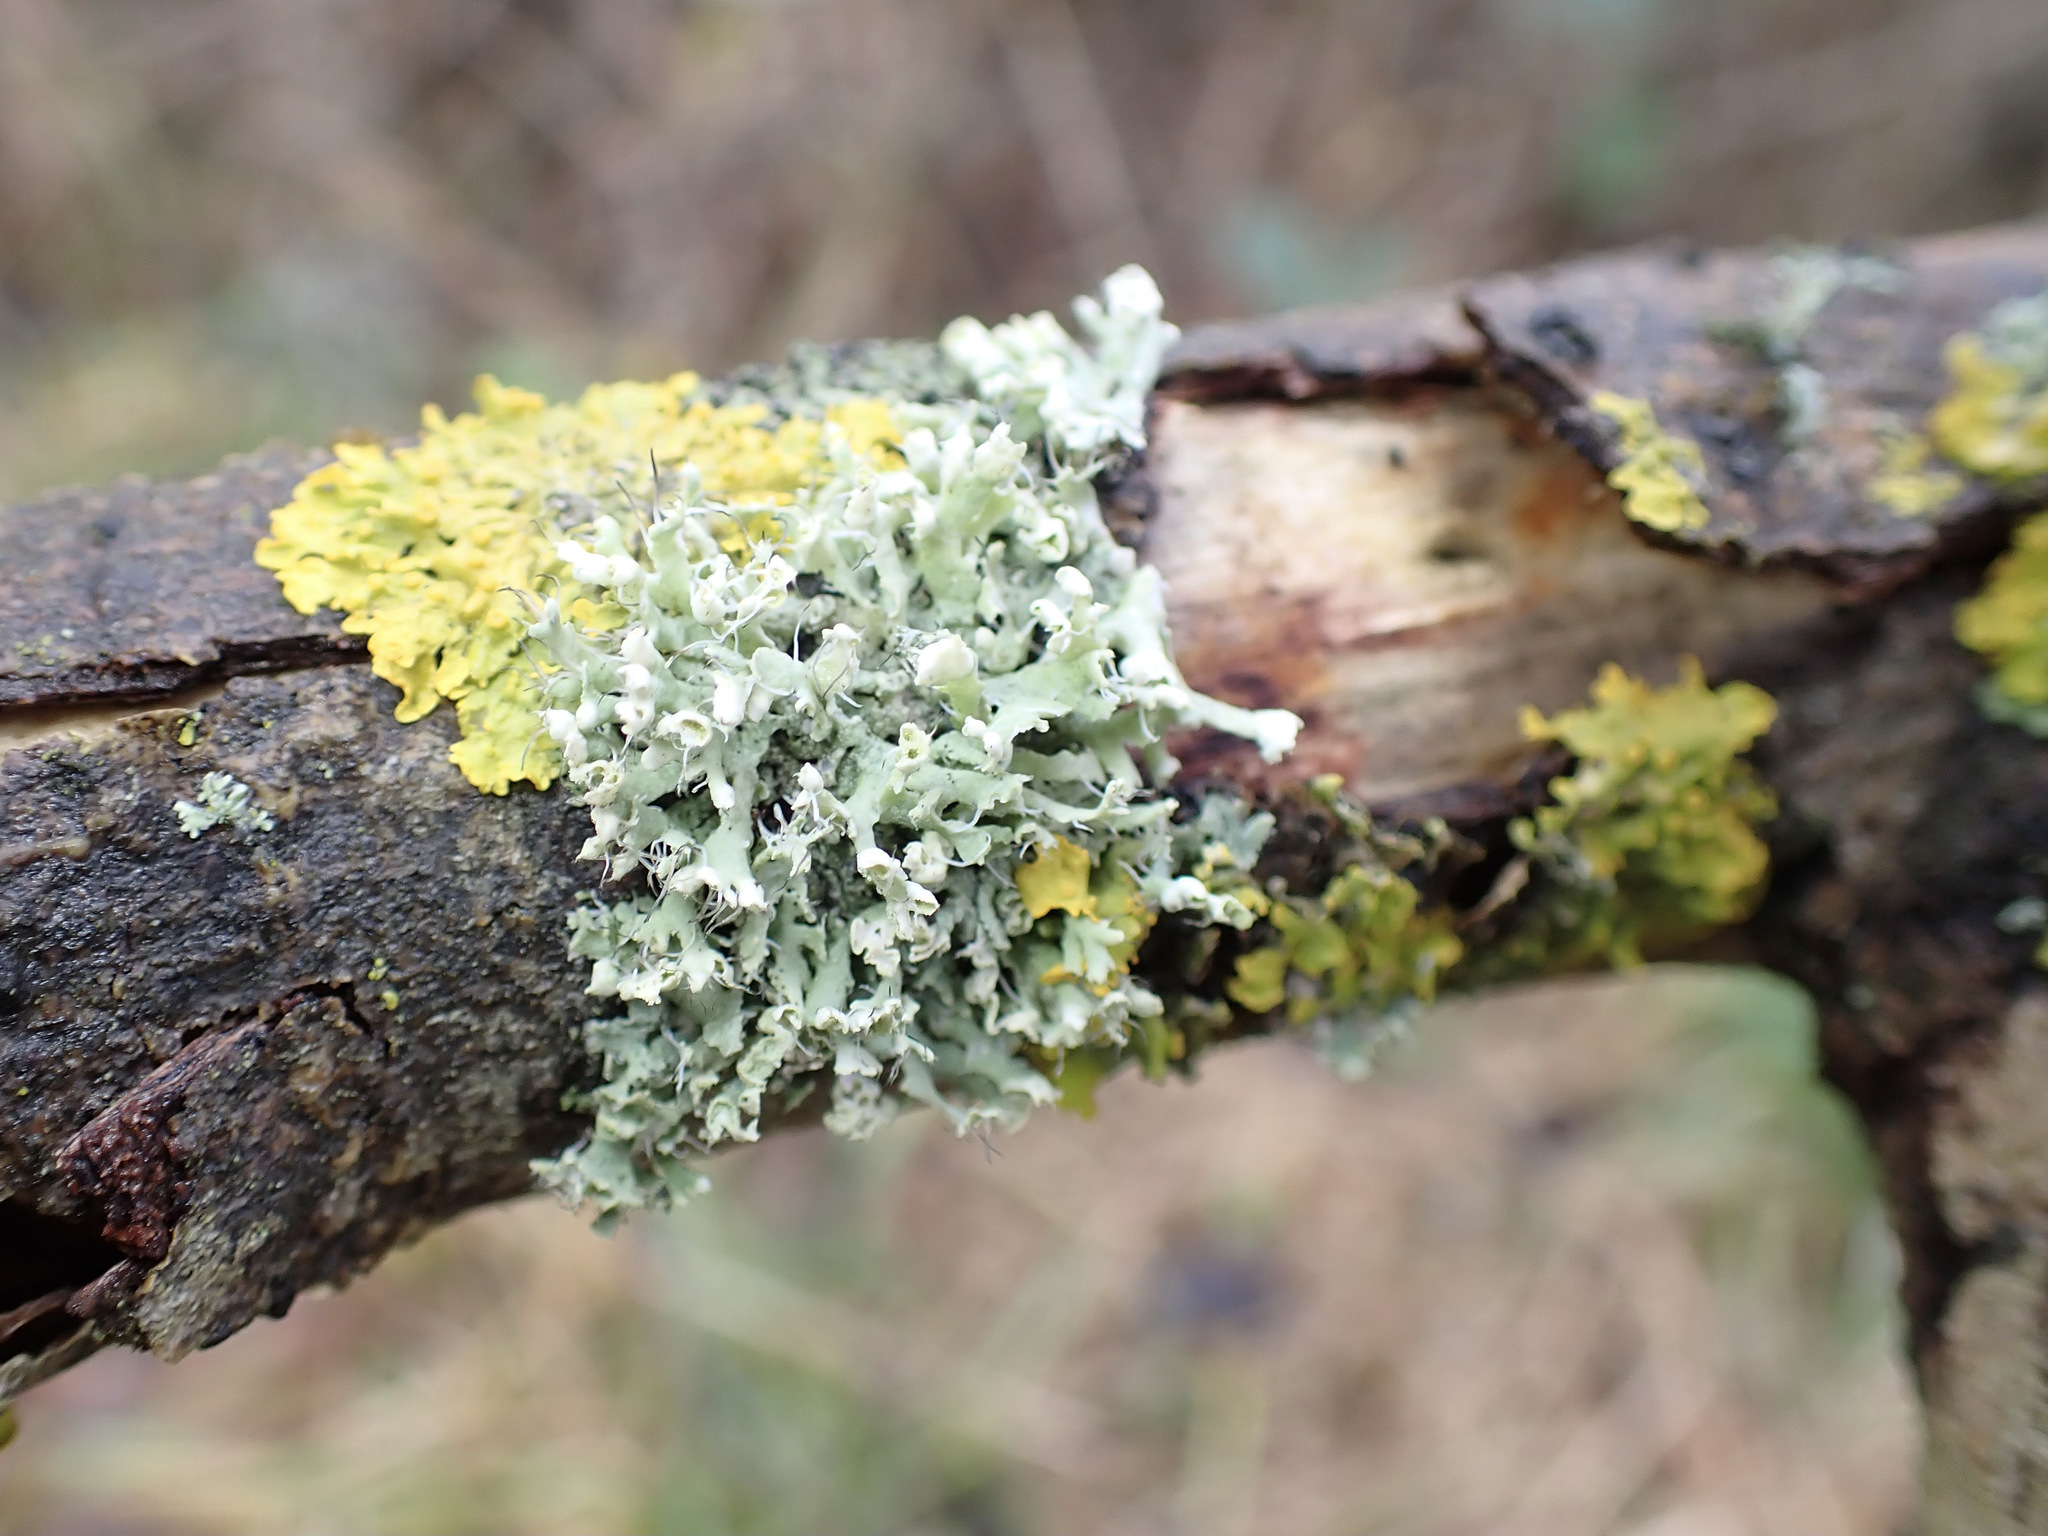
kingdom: Fungi
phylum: Ascomycota
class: Lecanoromycetes
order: Caliciales
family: Physciaceae
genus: Physcia
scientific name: Physcia adscendens
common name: Hooded rosette lichen
